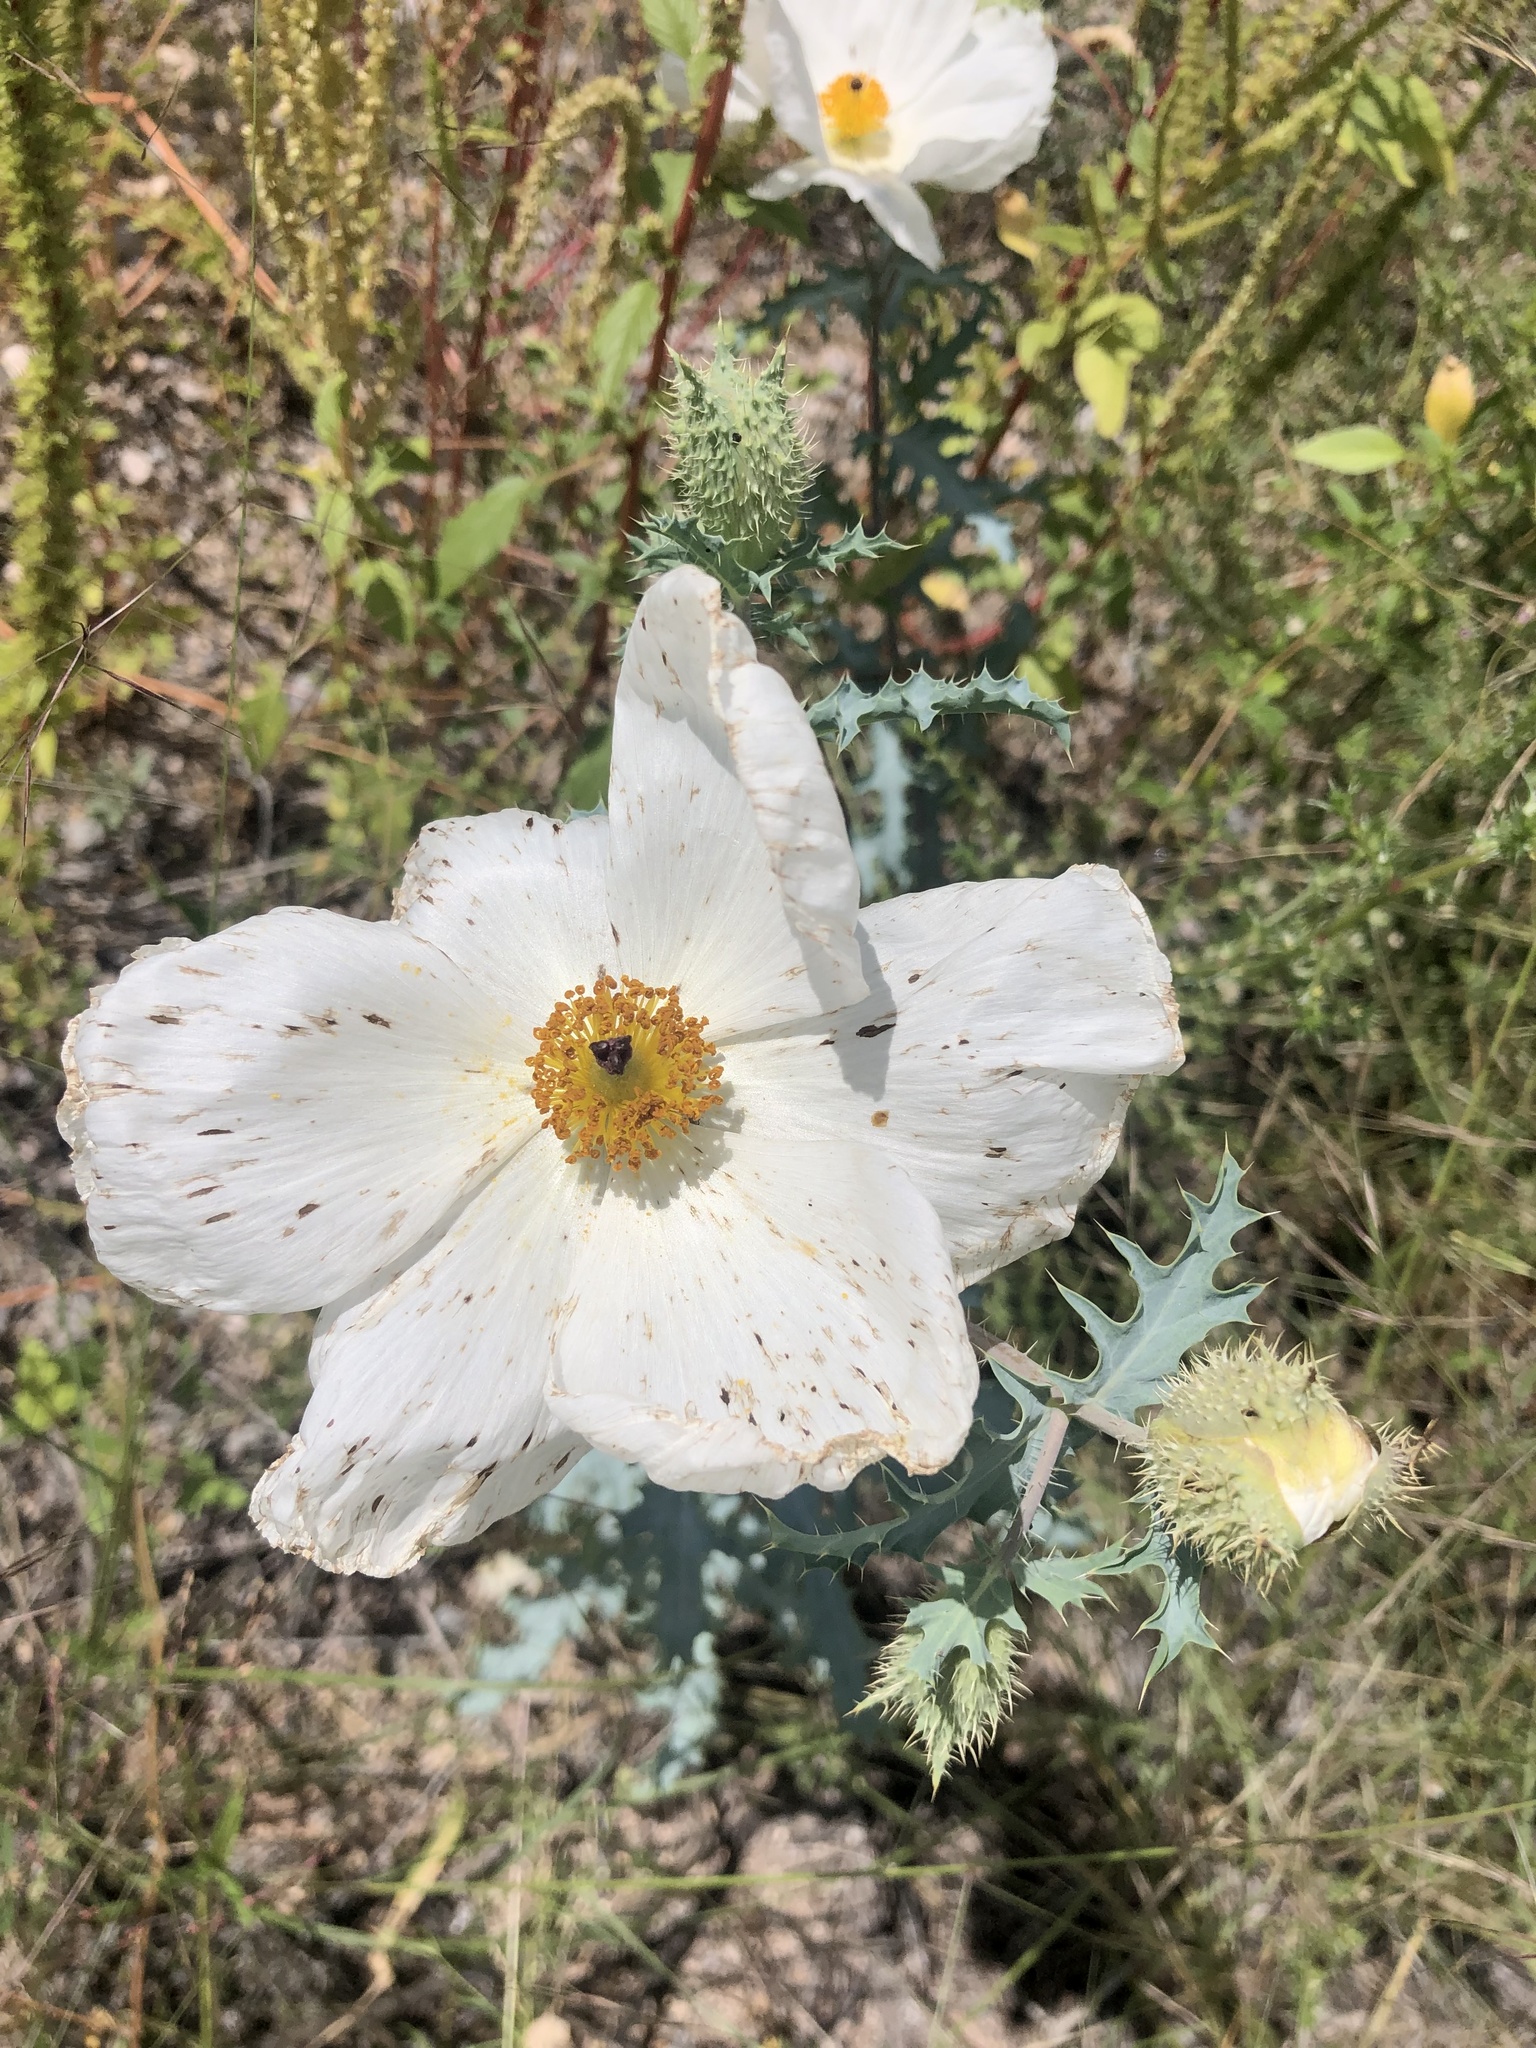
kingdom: Plantae
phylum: Tracheophyta
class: Magnoliopsida
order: Ranunculales
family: Papaveraceae
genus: Argemone
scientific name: Argemone pleiacantha
